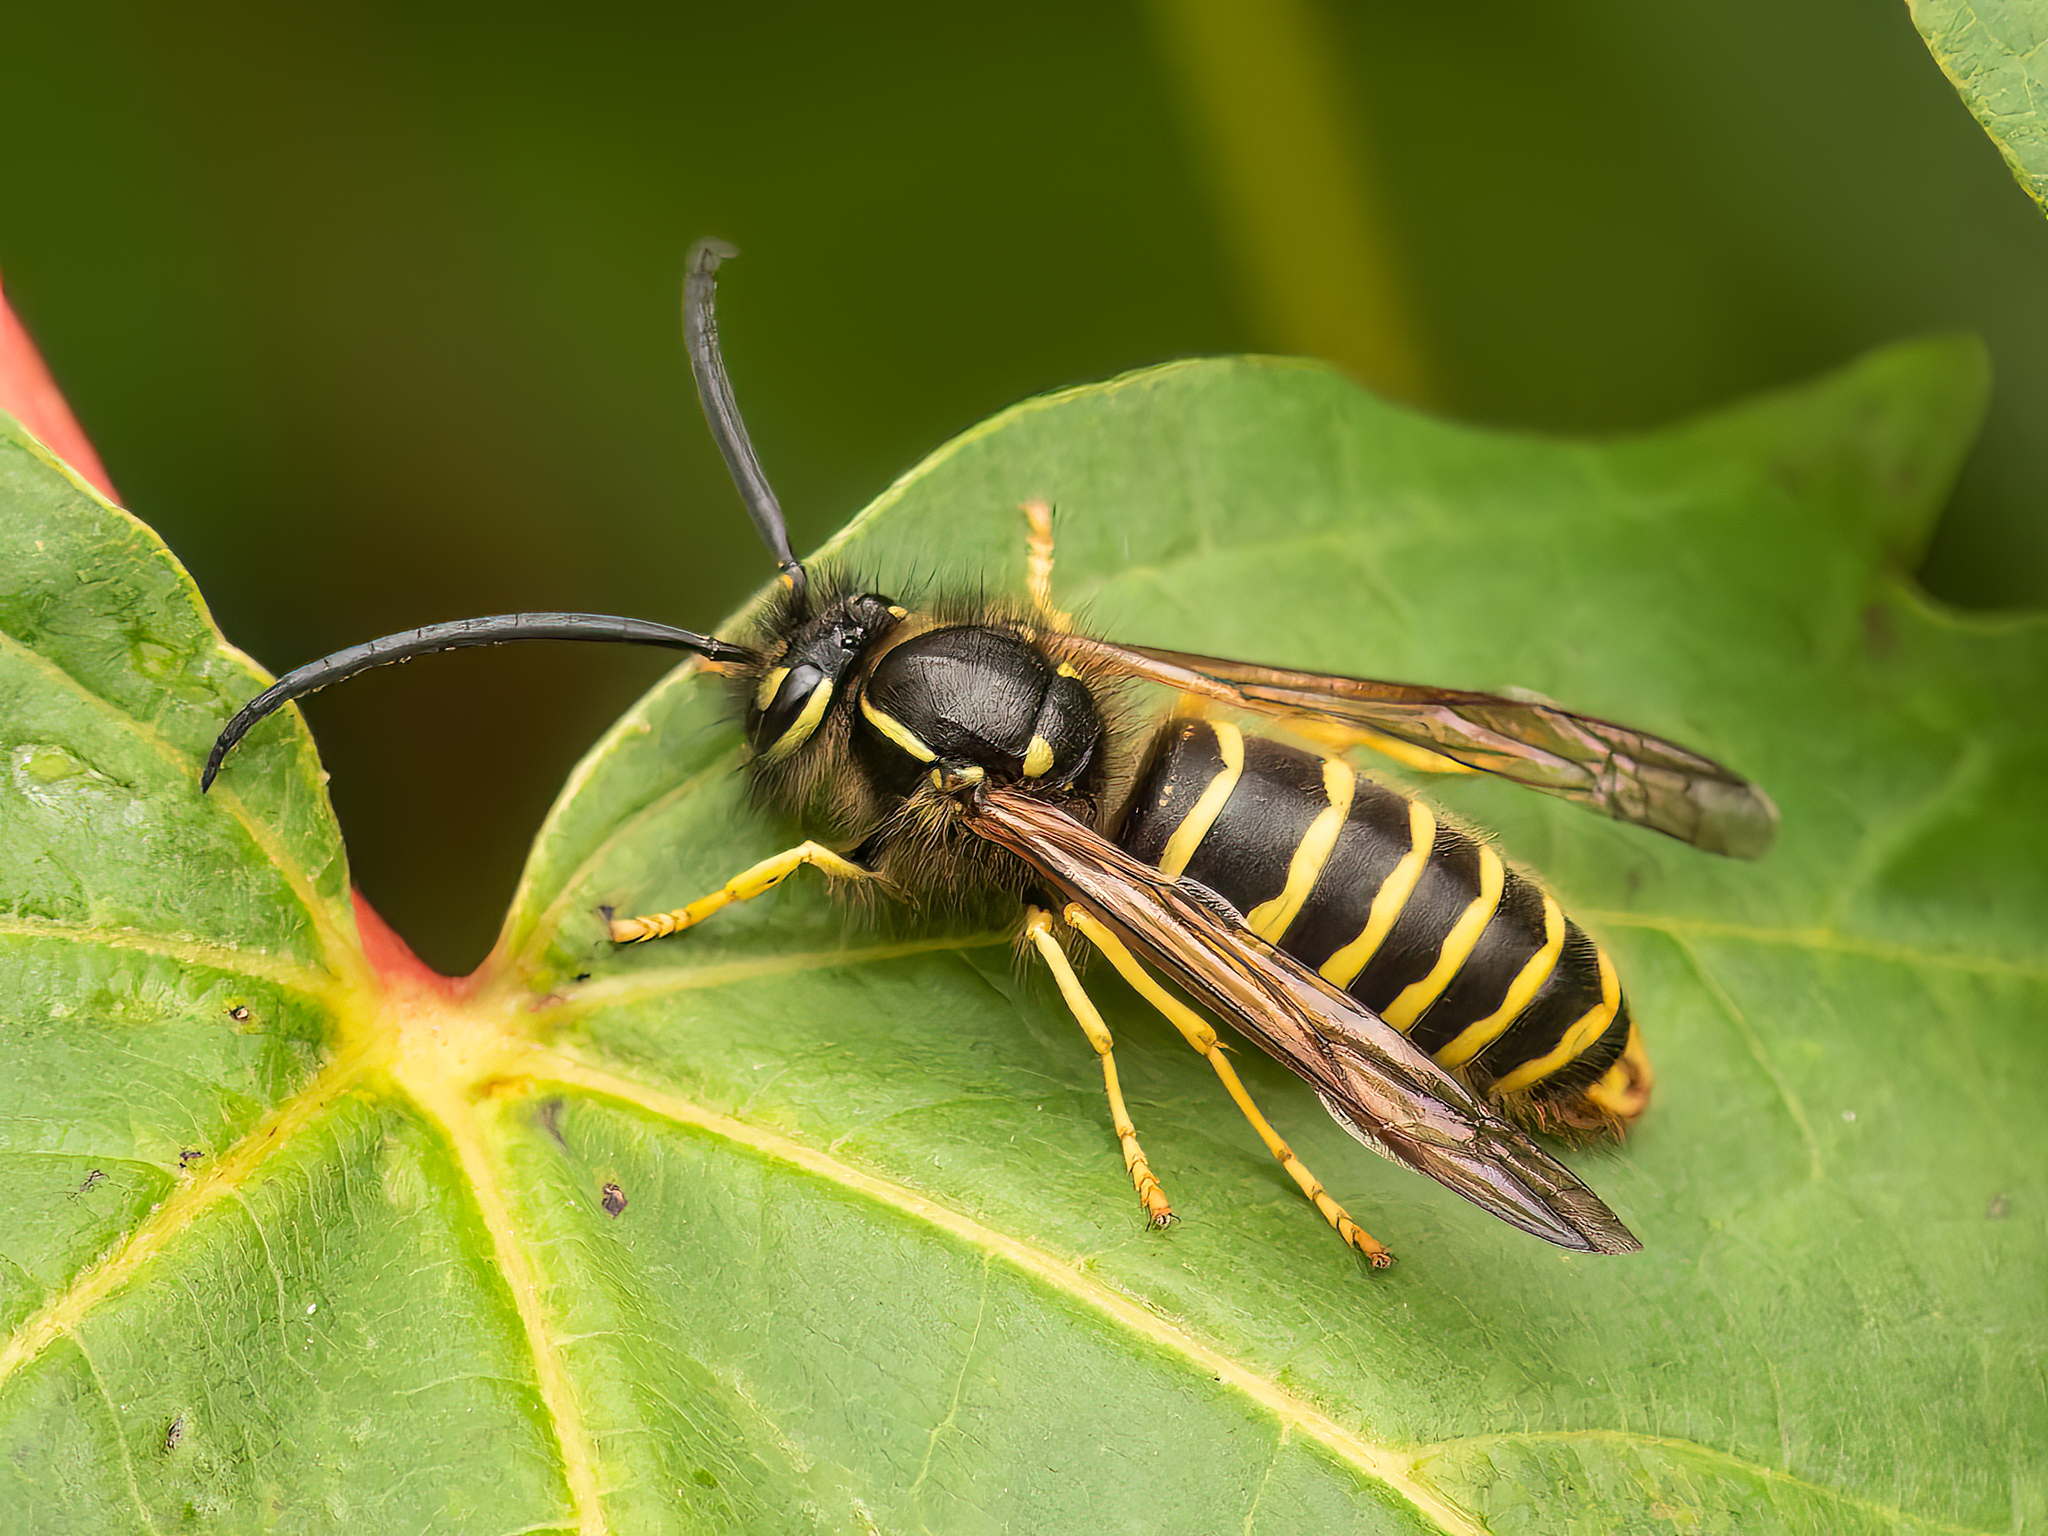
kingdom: Animalia
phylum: Arthropoda
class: Insecta
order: Hymenoptera
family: Vespidae
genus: Vespula
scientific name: Vespula alascensis
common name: Alaska yellowjacket
